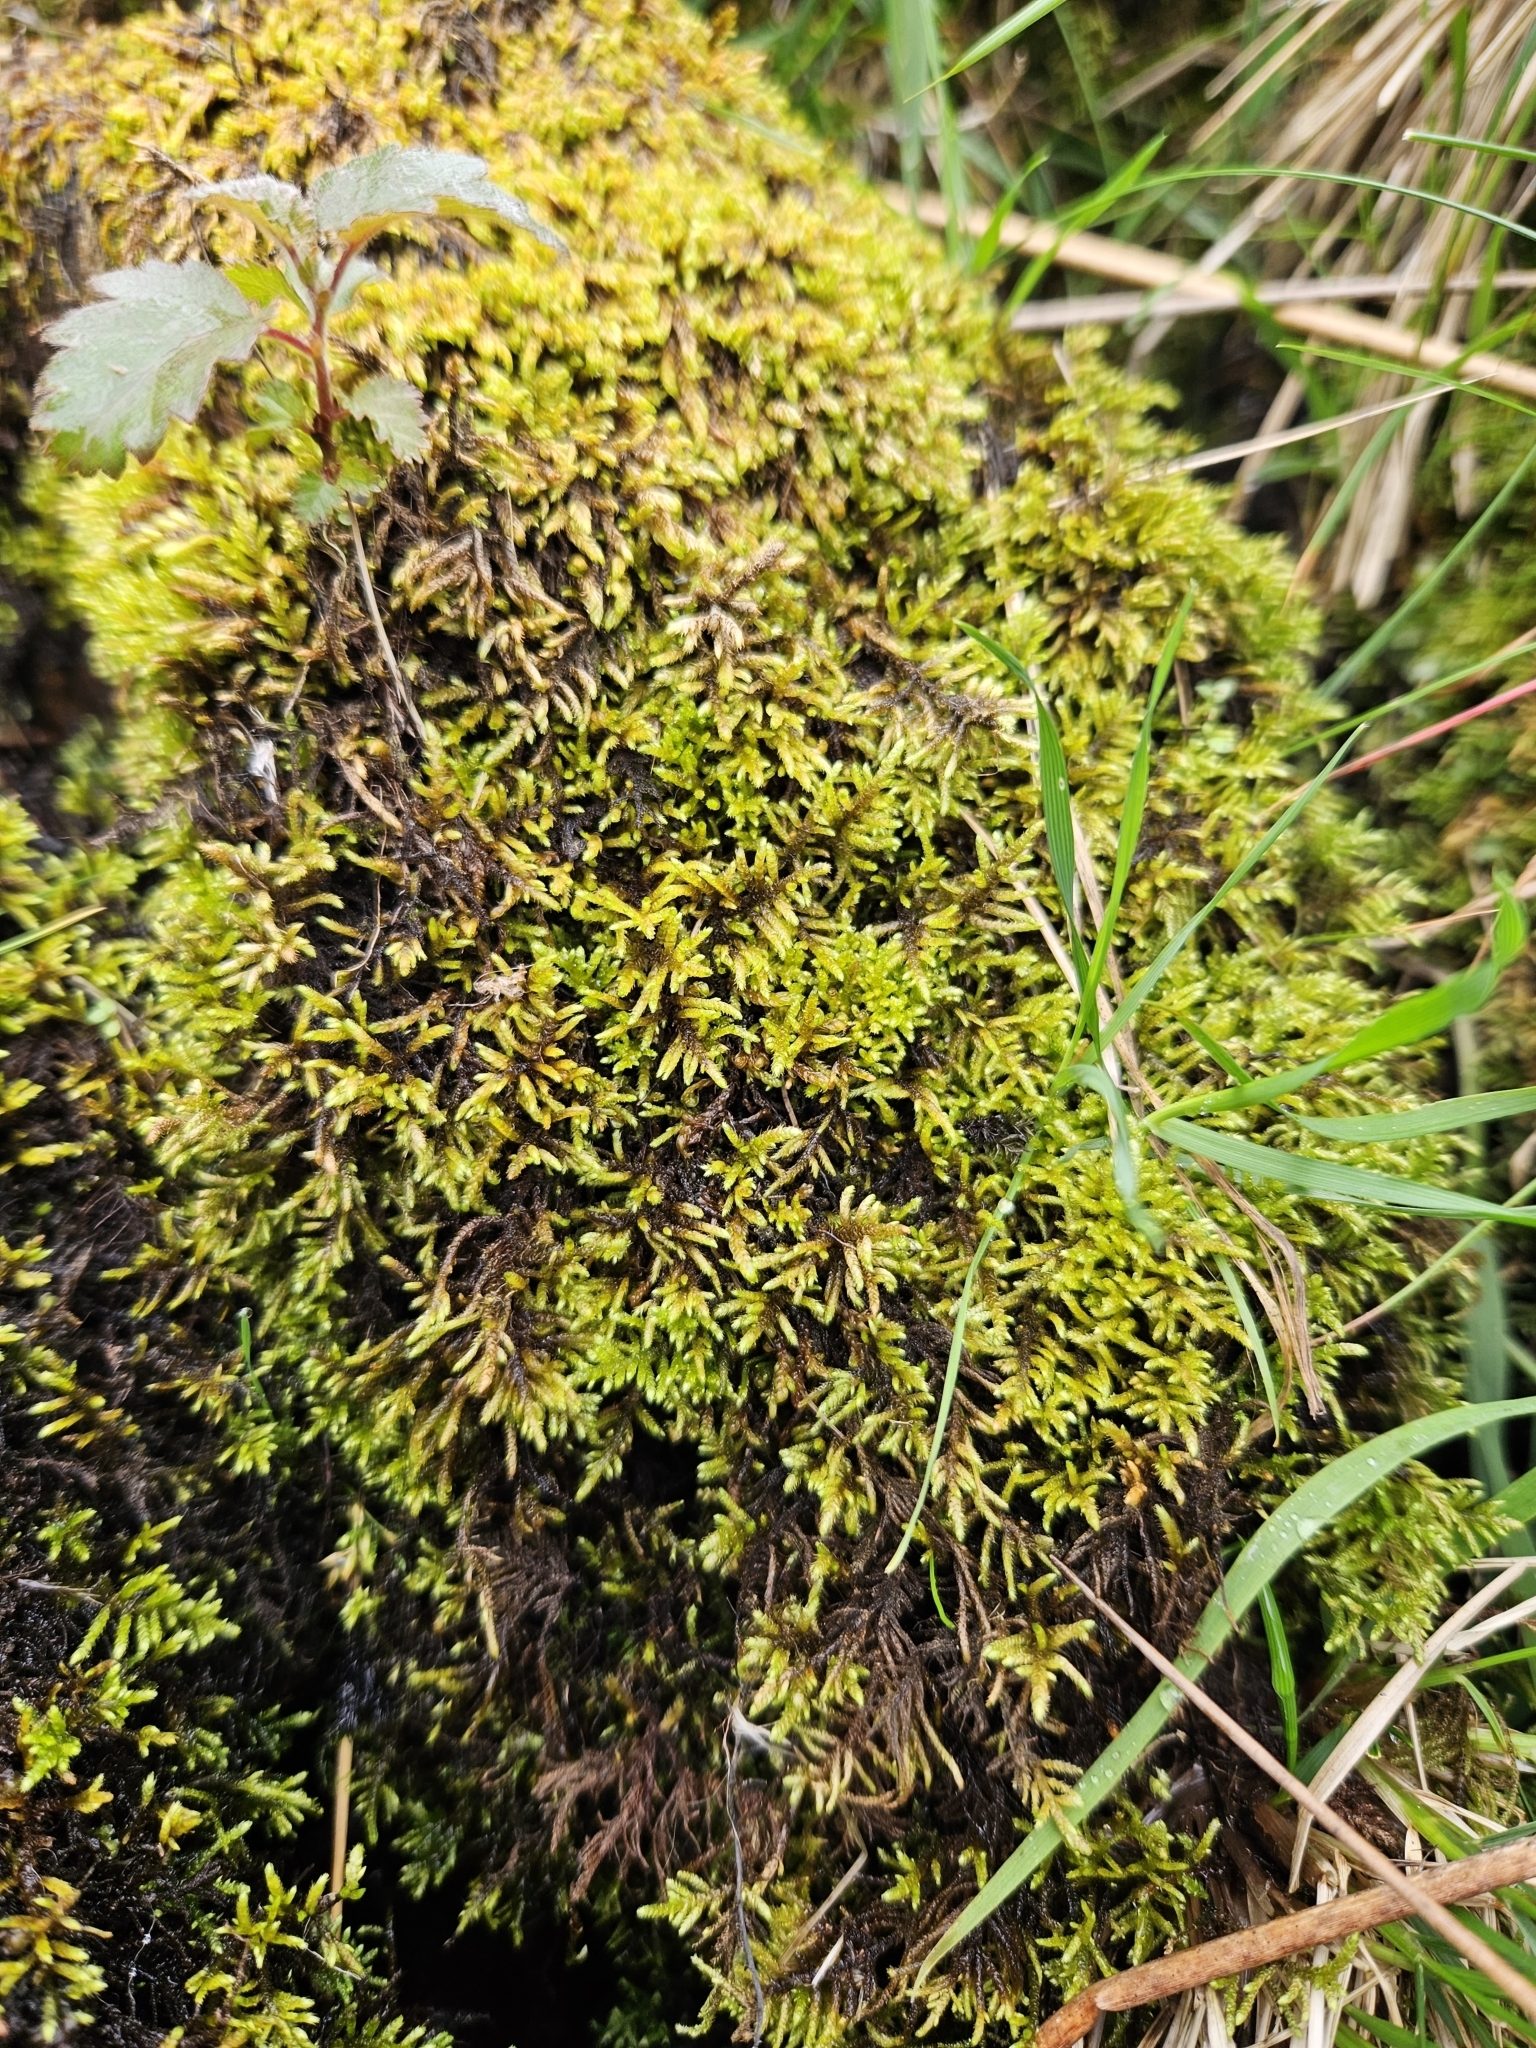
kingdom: Plantae
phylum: Bryophyta
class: Bryopsida
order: Hypnales
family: Myuriaceae
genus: Hyocomium
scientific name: Hyocomium armoricum
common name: Flagellate feather-moss
